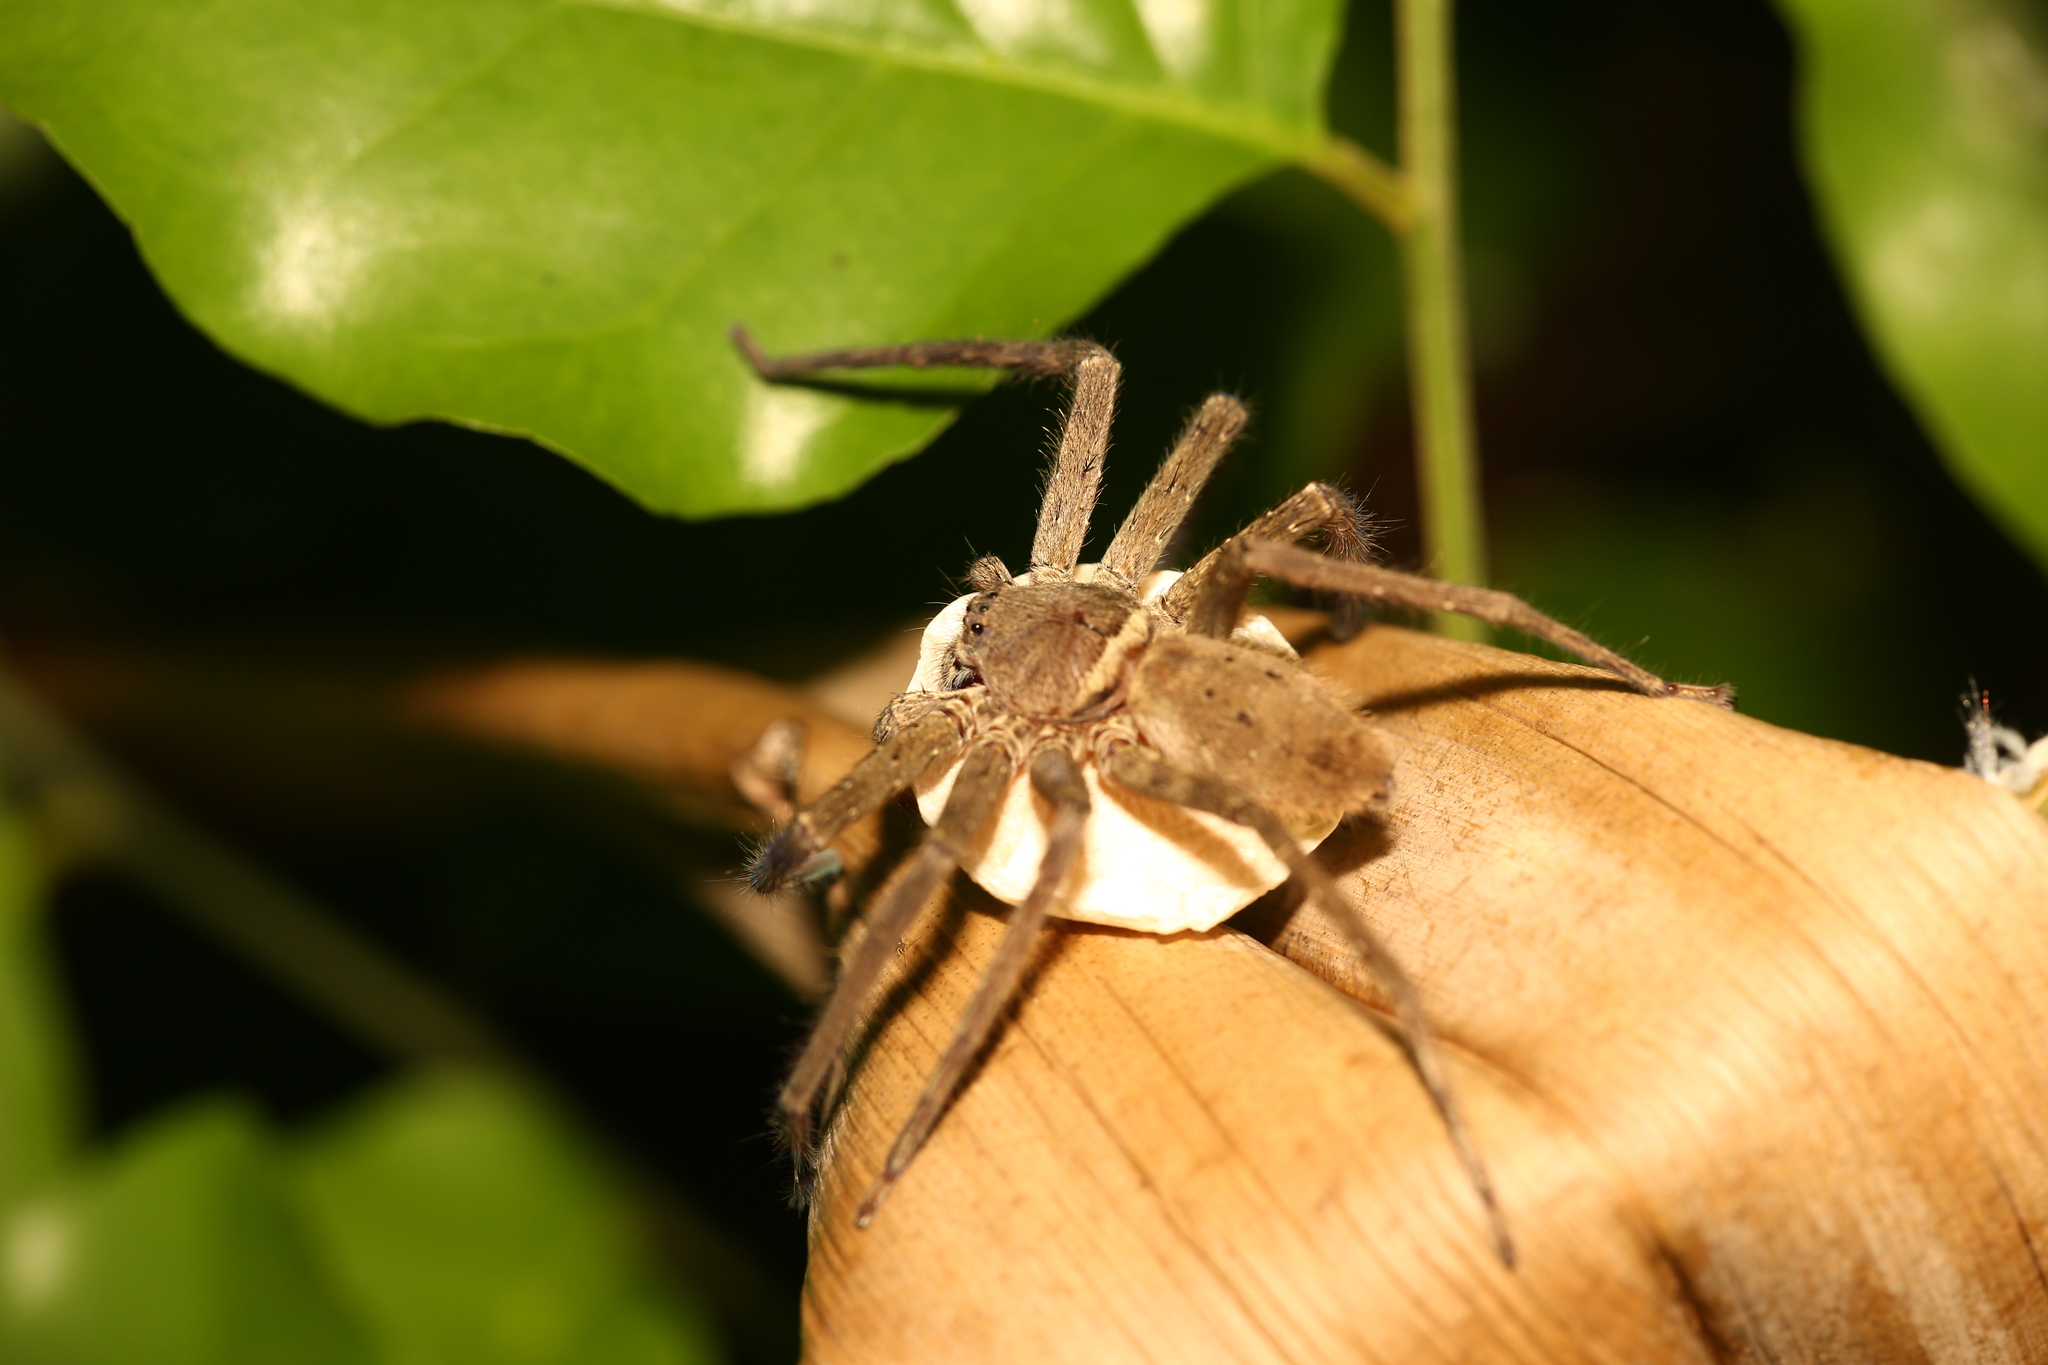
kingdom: Animalia
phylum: Arthropoda
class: Arachnida
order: Araneae
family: Sparassidae
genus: Heteropoda
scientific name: Heteropoda venatoria
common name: Huntsman spider
